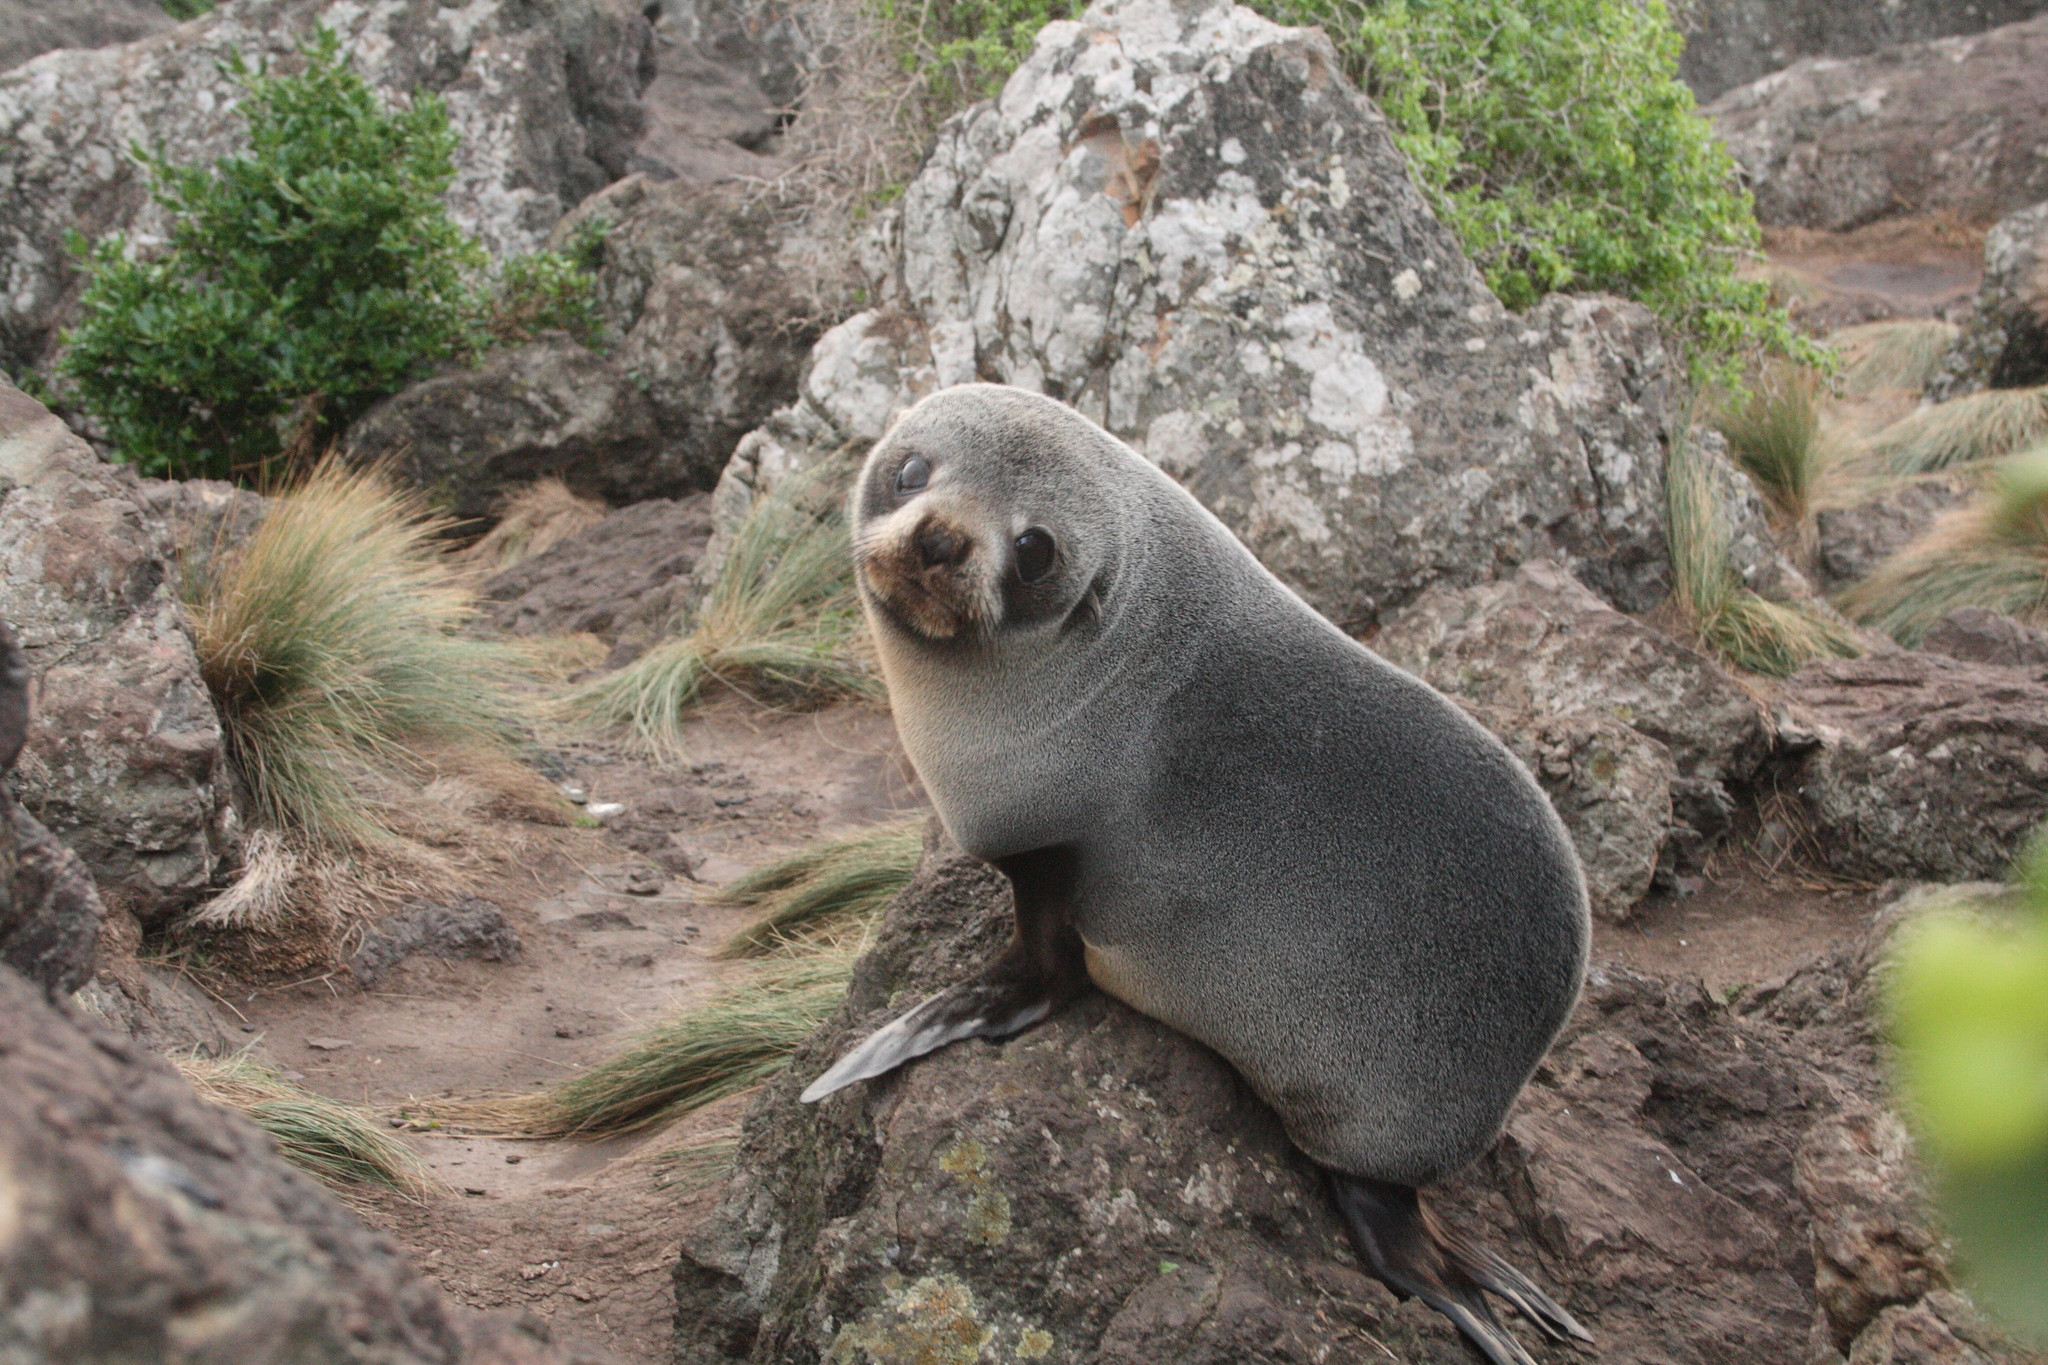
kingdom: Animalia
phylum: Chordata
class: Mammalia
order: Carnivora
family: Otariidae
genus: Arctocephalus
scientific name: Arctocephalus forsteri
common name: New zealand fur seal
